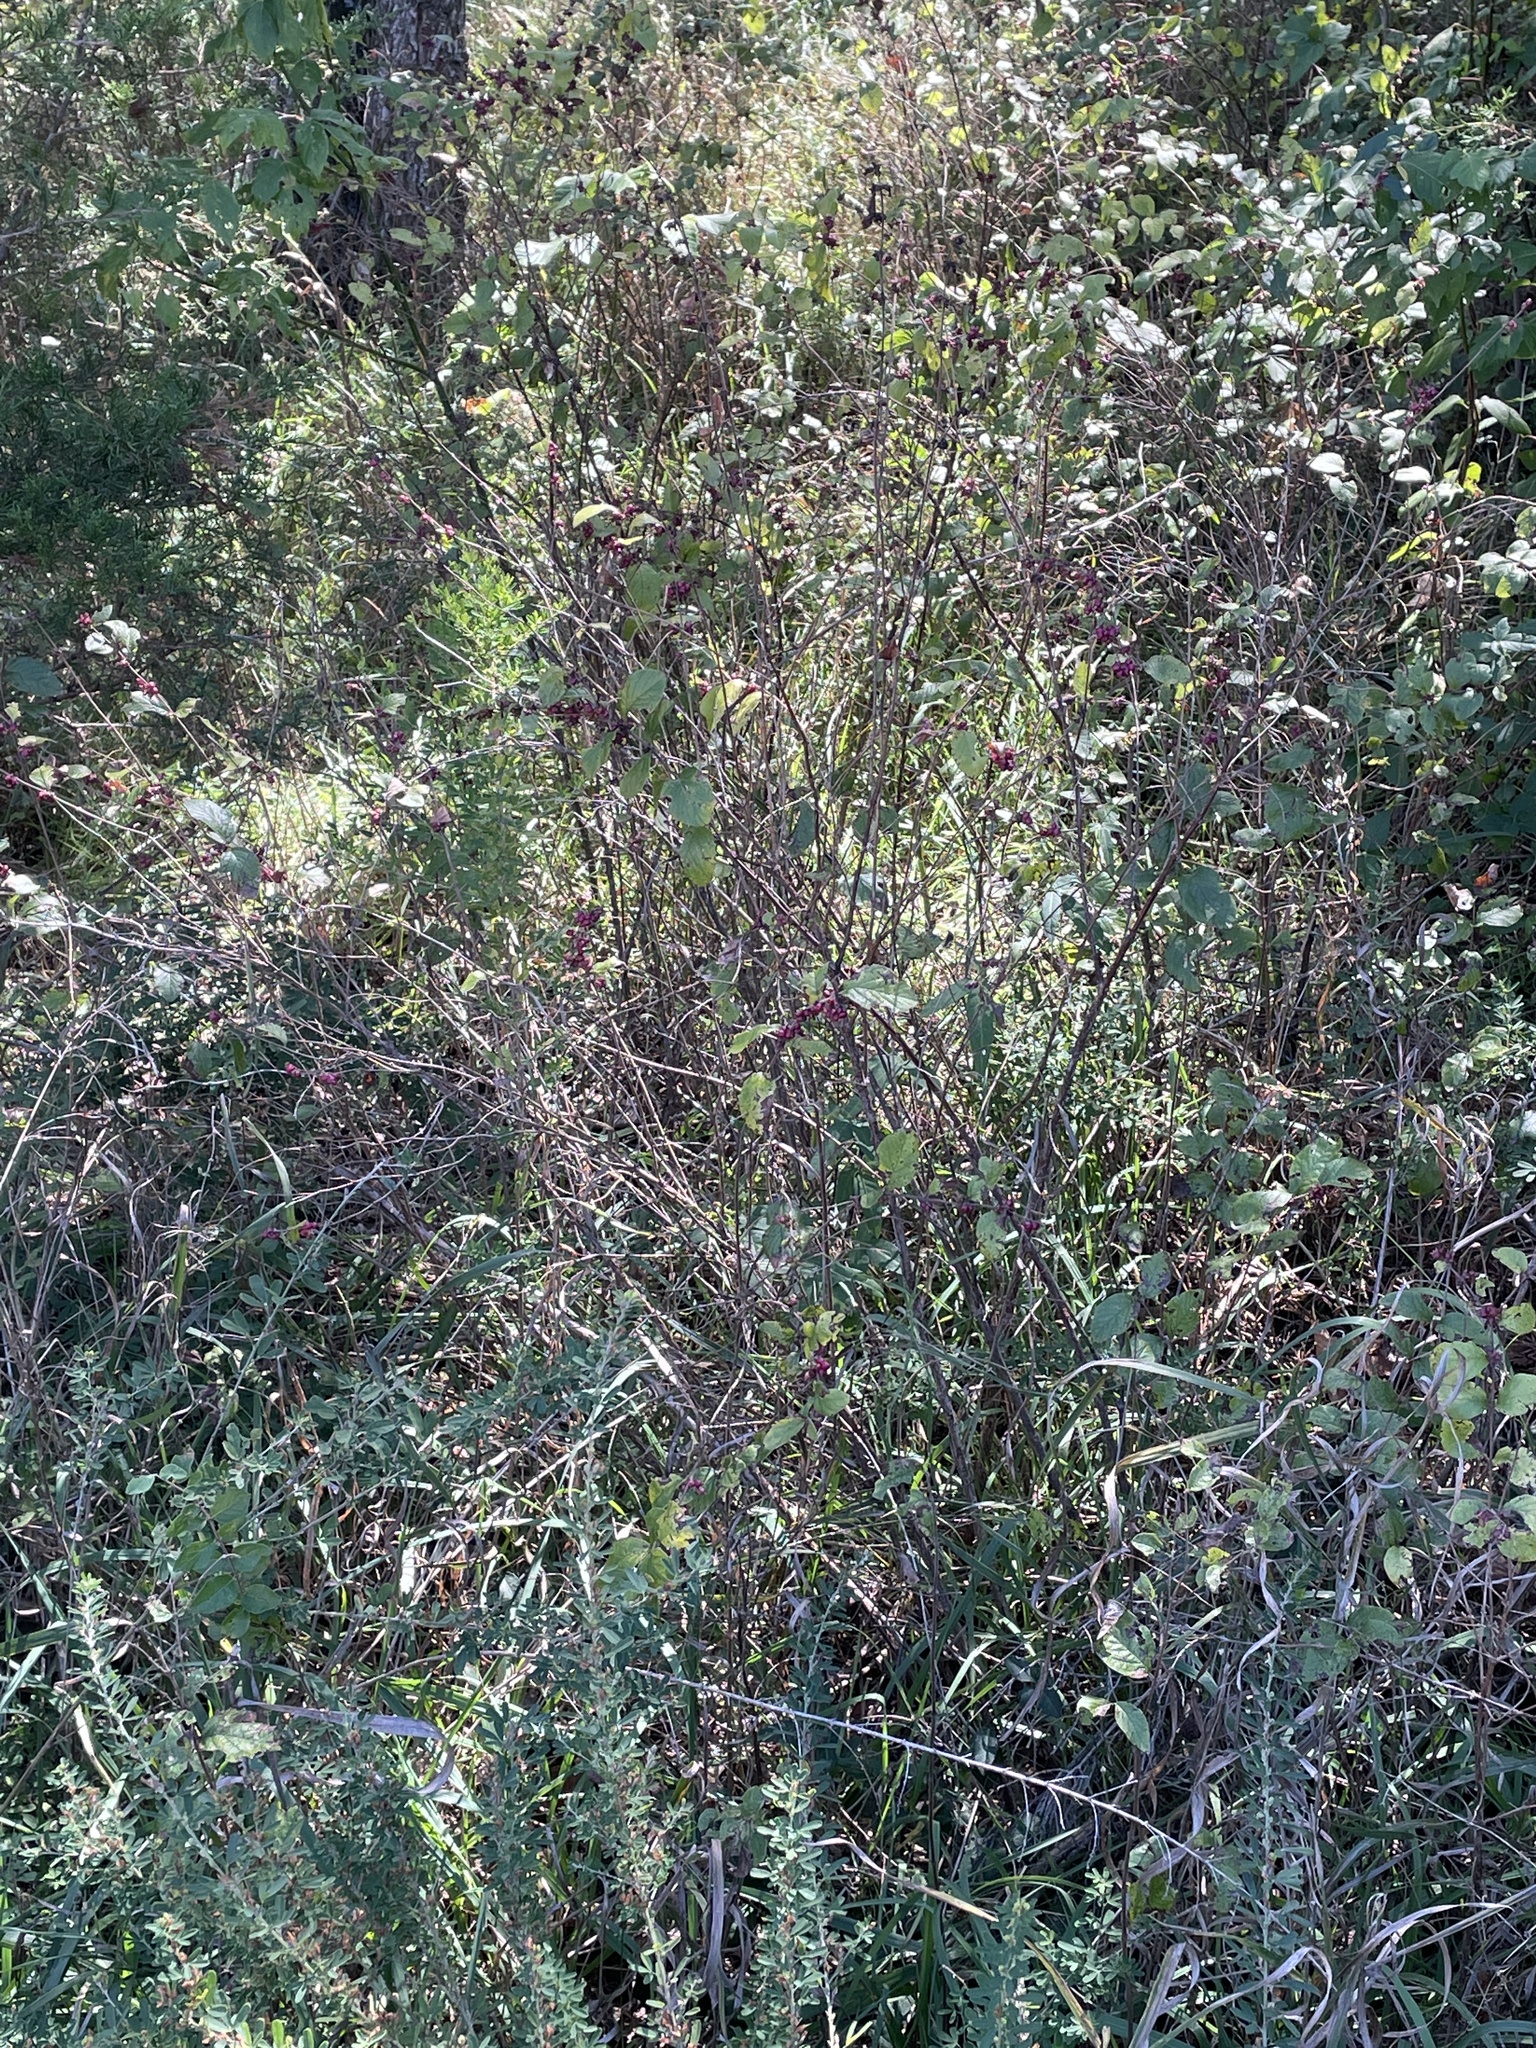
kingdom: Plantae
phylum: Tracheophyta
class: Magnoliopsida
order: Dipsacales
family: Caprifoliaceae
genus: Symphoricarpos
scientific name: Symphoricarpos orbiculatus
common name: Coralberry
